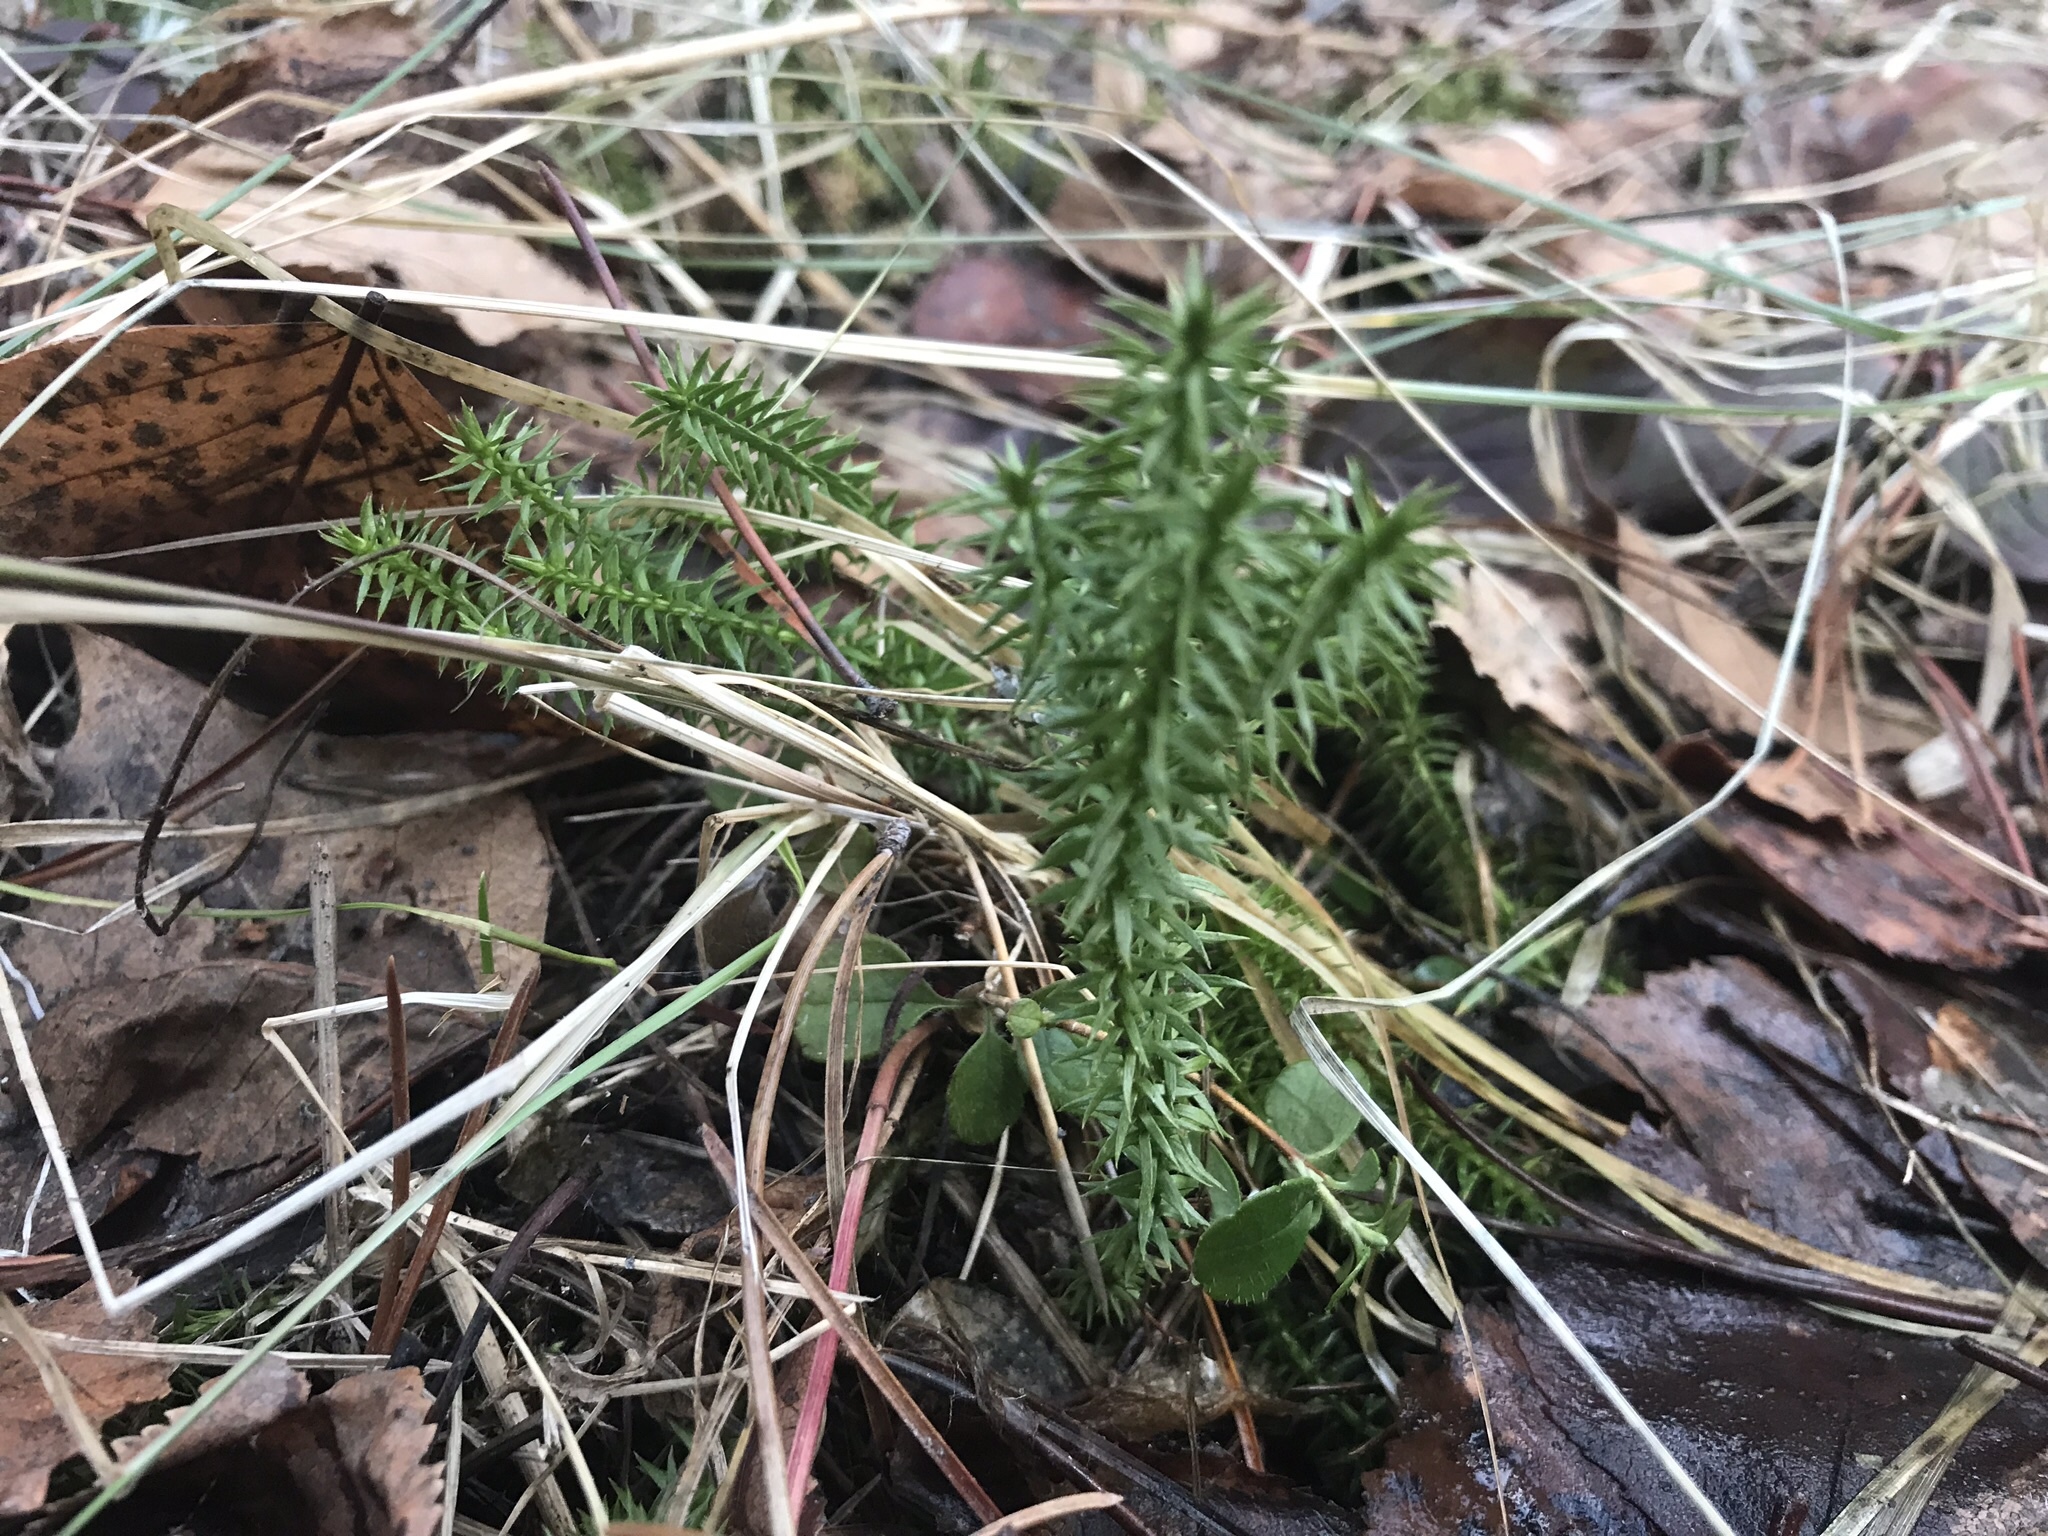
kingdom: Plantae
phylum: Tracheophyta
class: Lycopodiopsida
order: Lycopodiales
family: Lycopodiaceae
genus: Spinulum
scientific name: Spinulum annotinum
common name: Interrupted club-moss
